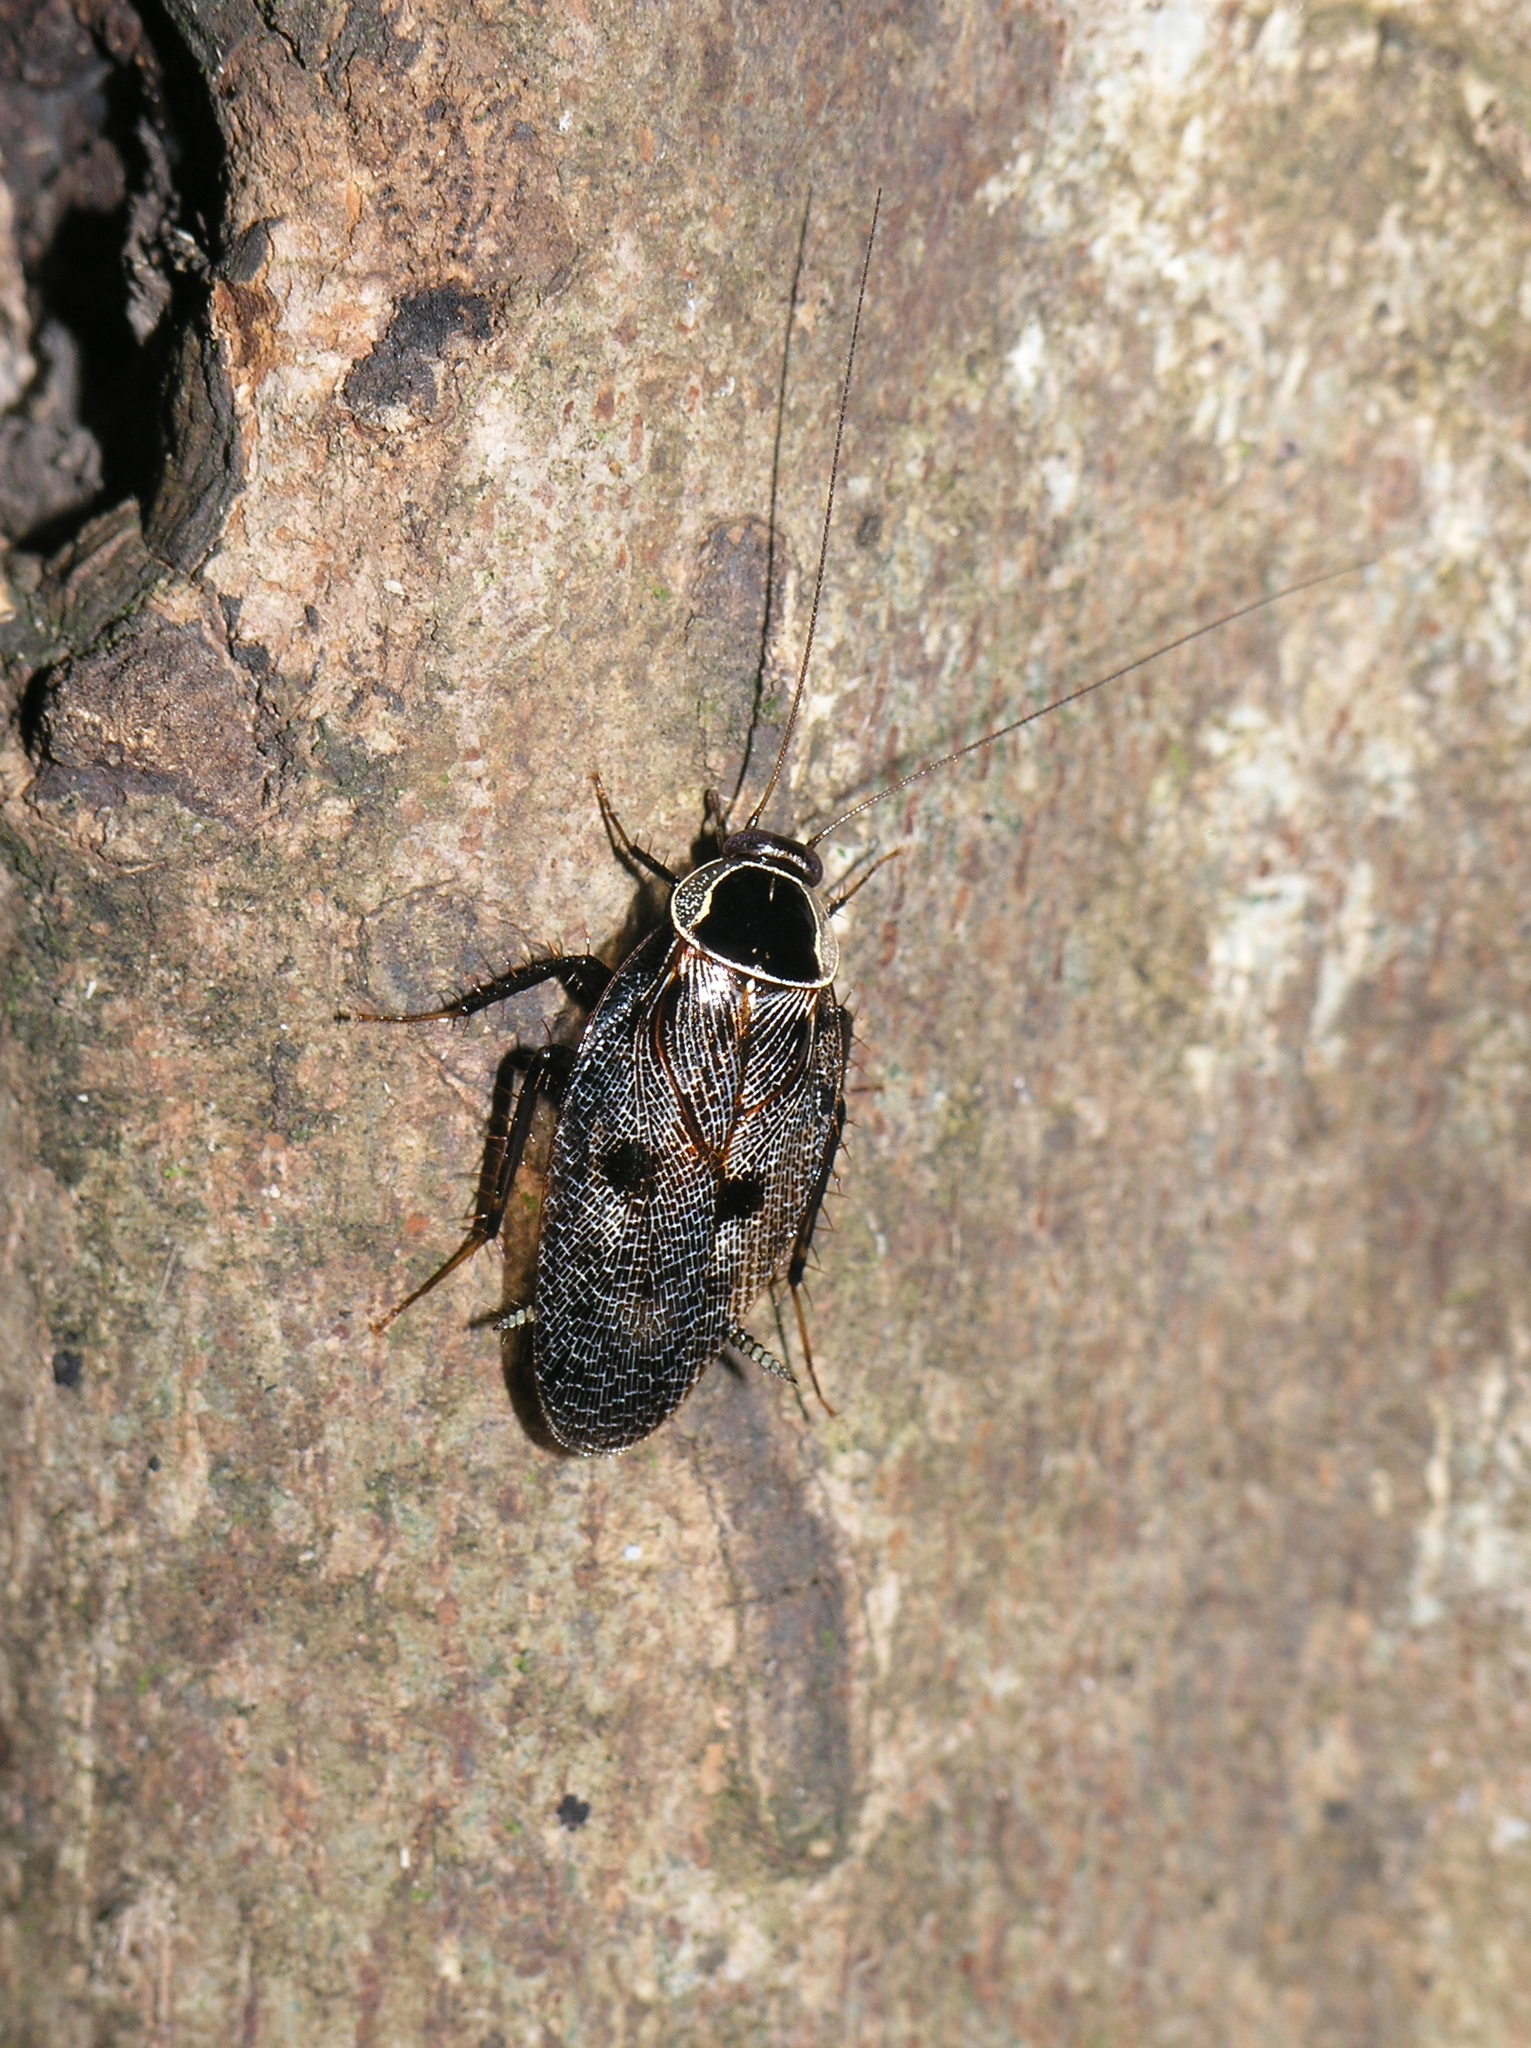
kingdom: Animalia
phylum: Arthropoda
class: Insecta
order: Blattodea
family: Ectobiidae
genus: Allacta
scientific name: Allacta bimaculata
